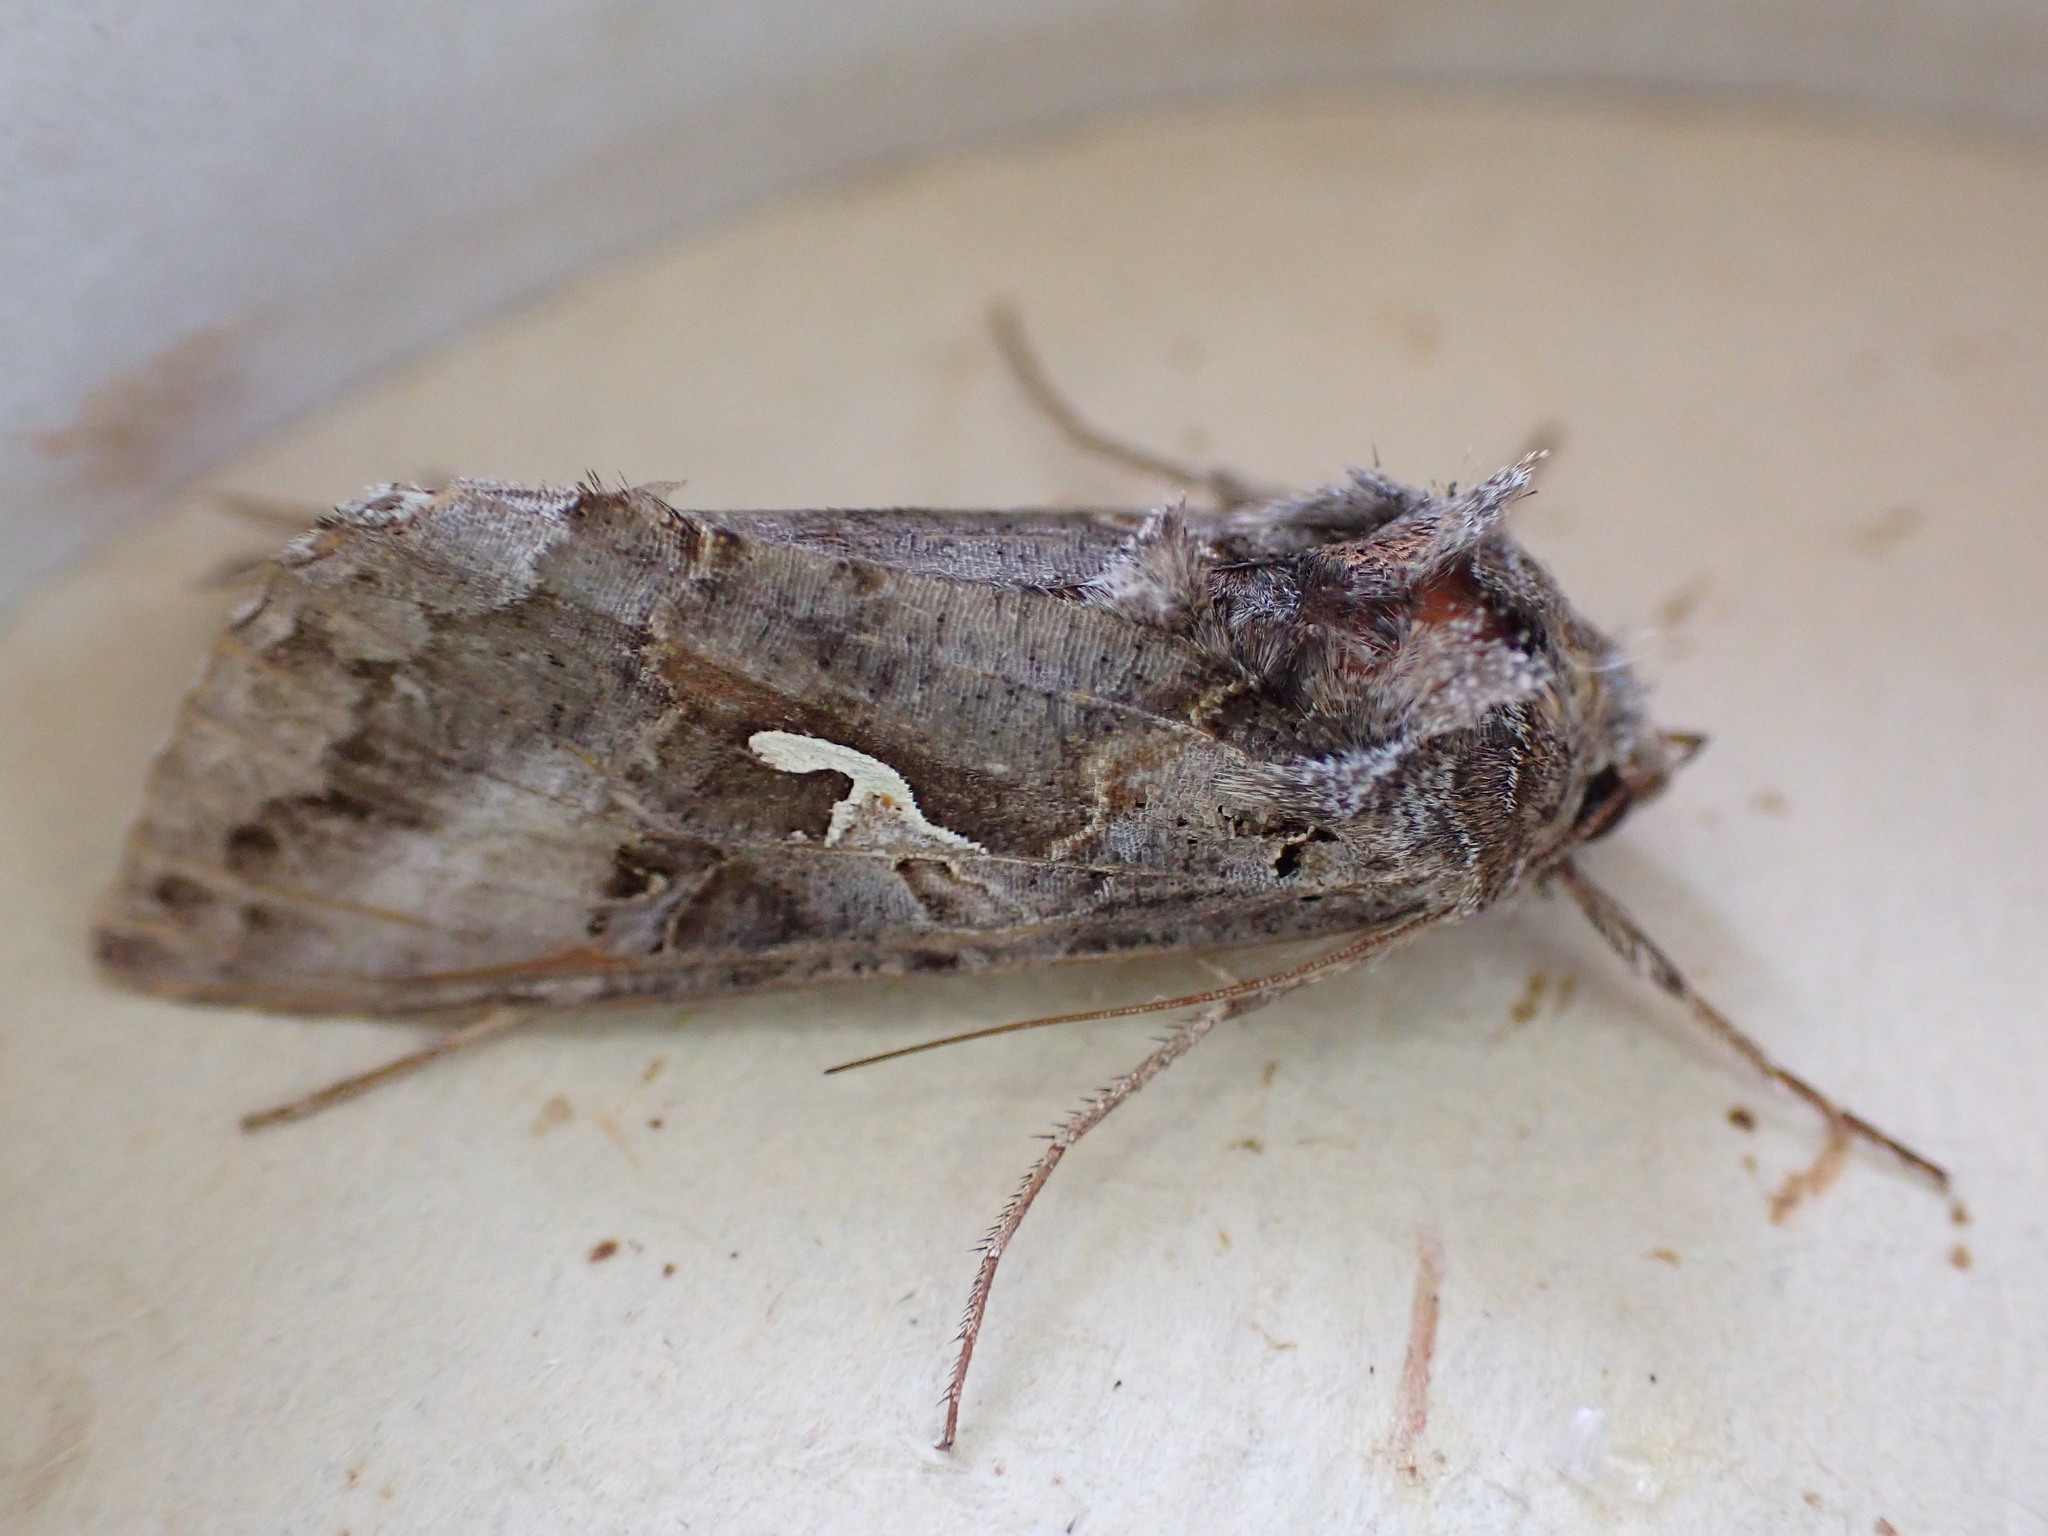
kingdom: Animalia
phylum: Arthropoda
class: Insecta
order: Lepidoptera
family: Noctuidae
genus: Autographa
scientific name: Autographa gamma
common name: Silver y
